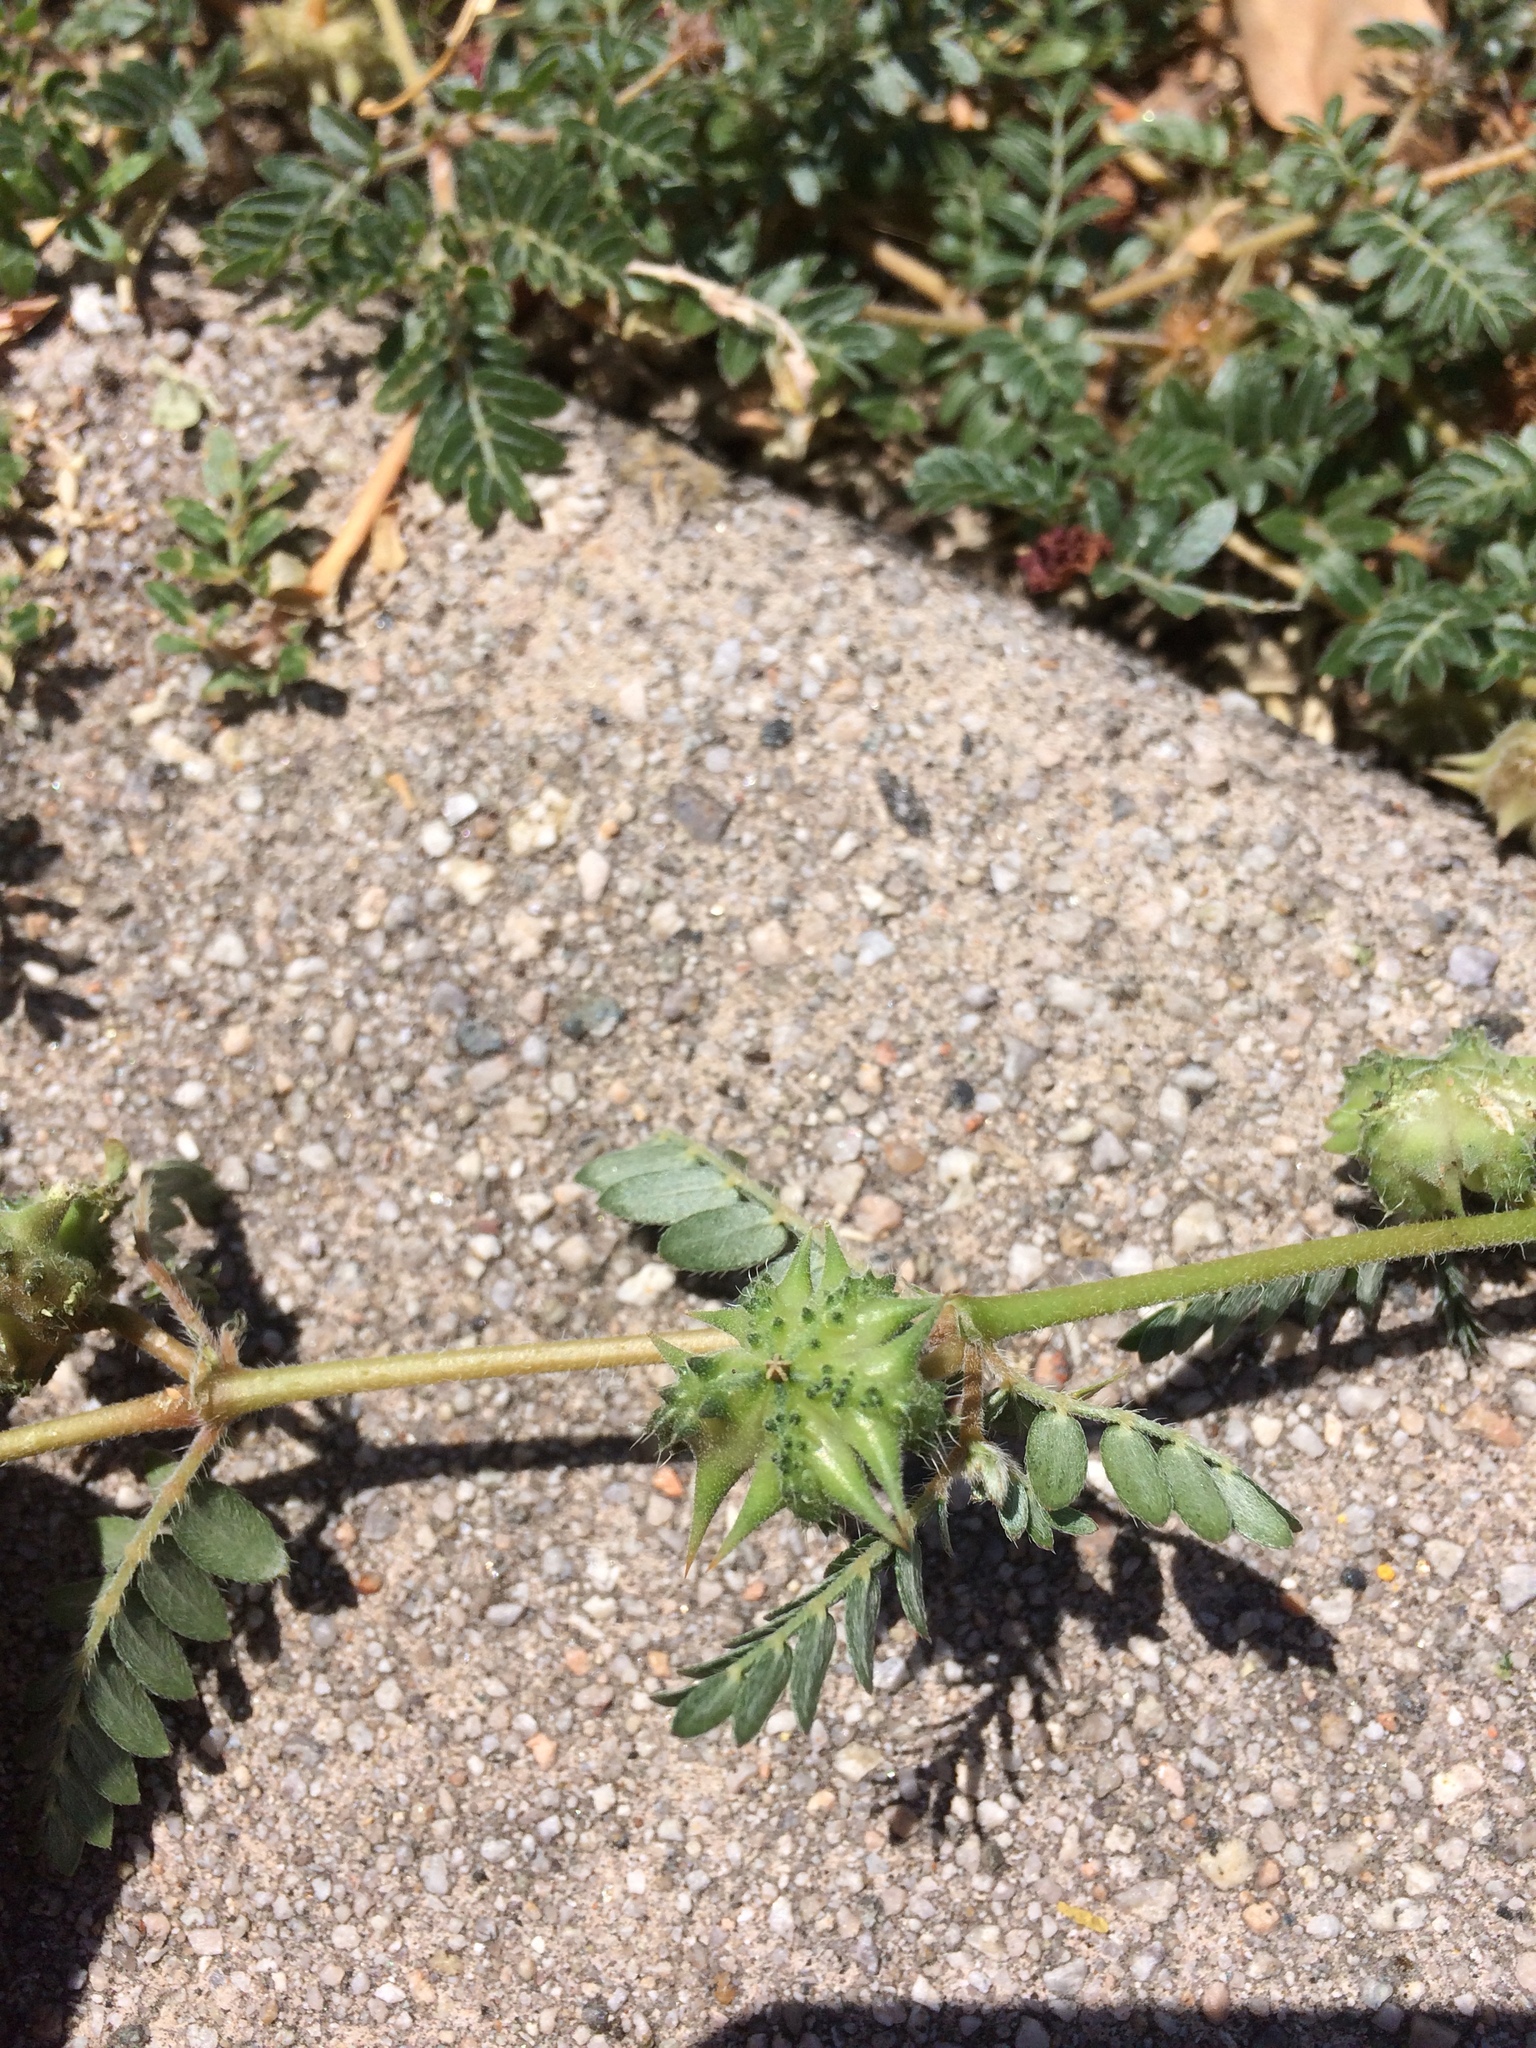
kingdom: Plantae
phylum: Tracheophyta
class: Magnoliopsida
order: Zygophyllales
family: Zygophyllaceae
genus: Tribulus
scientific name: Tribulus terrestris
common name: Puncturevine
